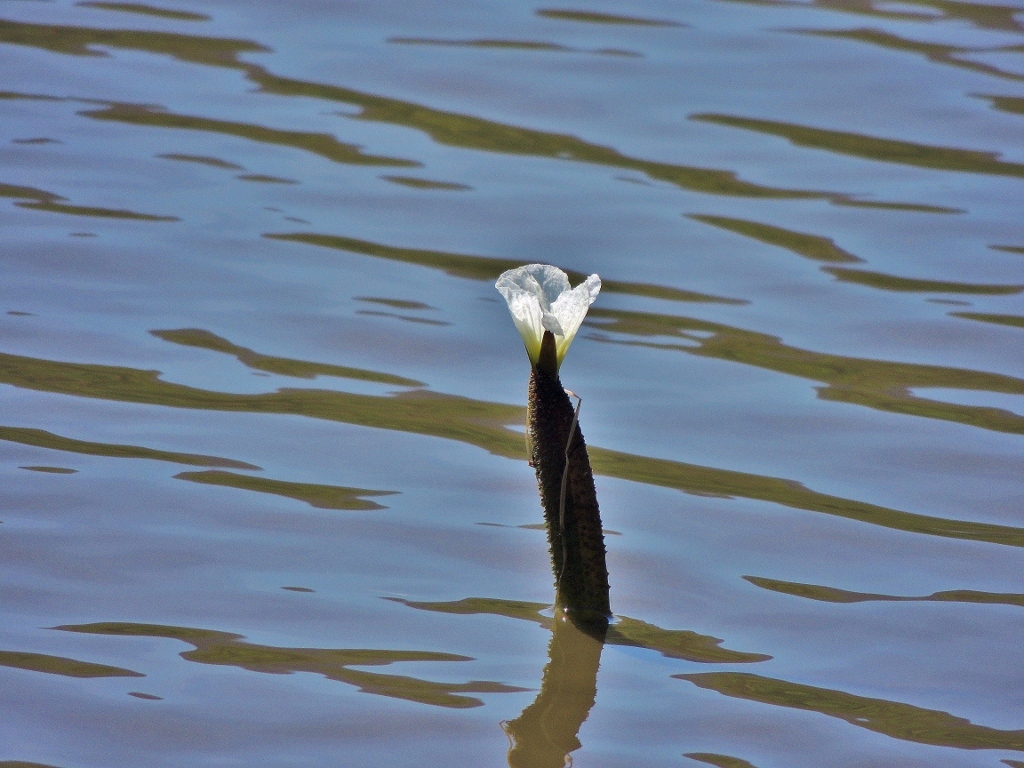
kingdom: Plantae
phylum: Tracheophyta
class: Liliopsida
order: Alismatales
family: Hydrocharitaceae
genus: Ottelia
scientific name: Ottelia muricata
